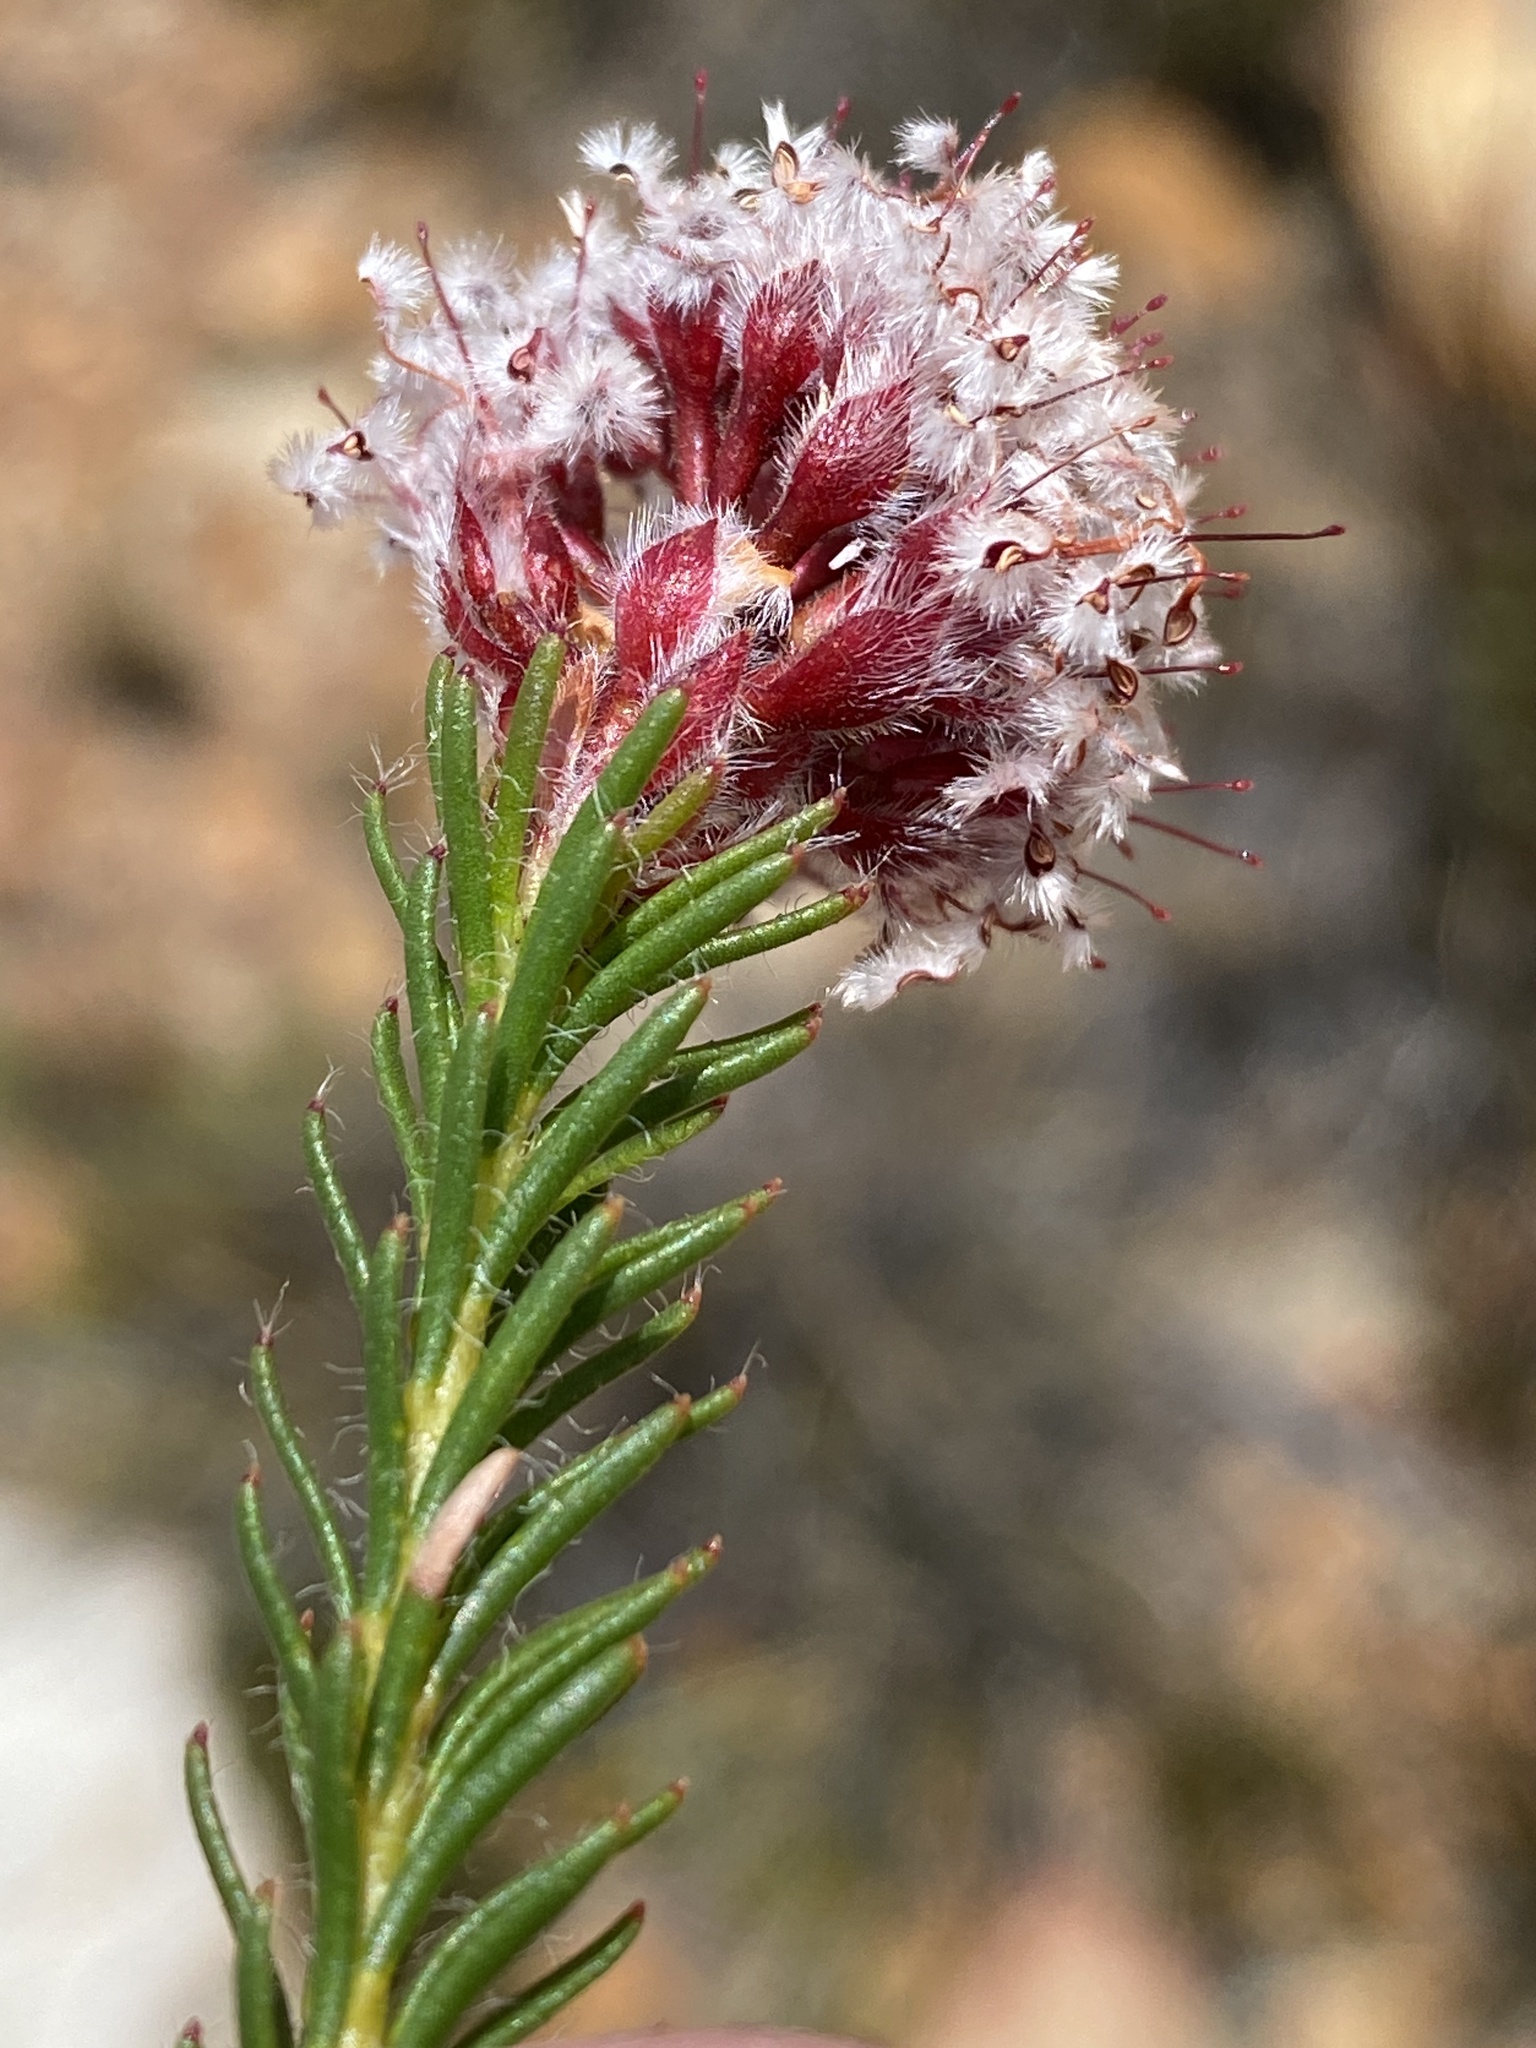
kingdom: Plantae
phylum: Tracheophyta
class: Magnoliopsida
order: Proteales
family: Proteaceae
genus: Sorocephalus
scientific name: Sorocephalus lanatus
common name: Common clusterhead
